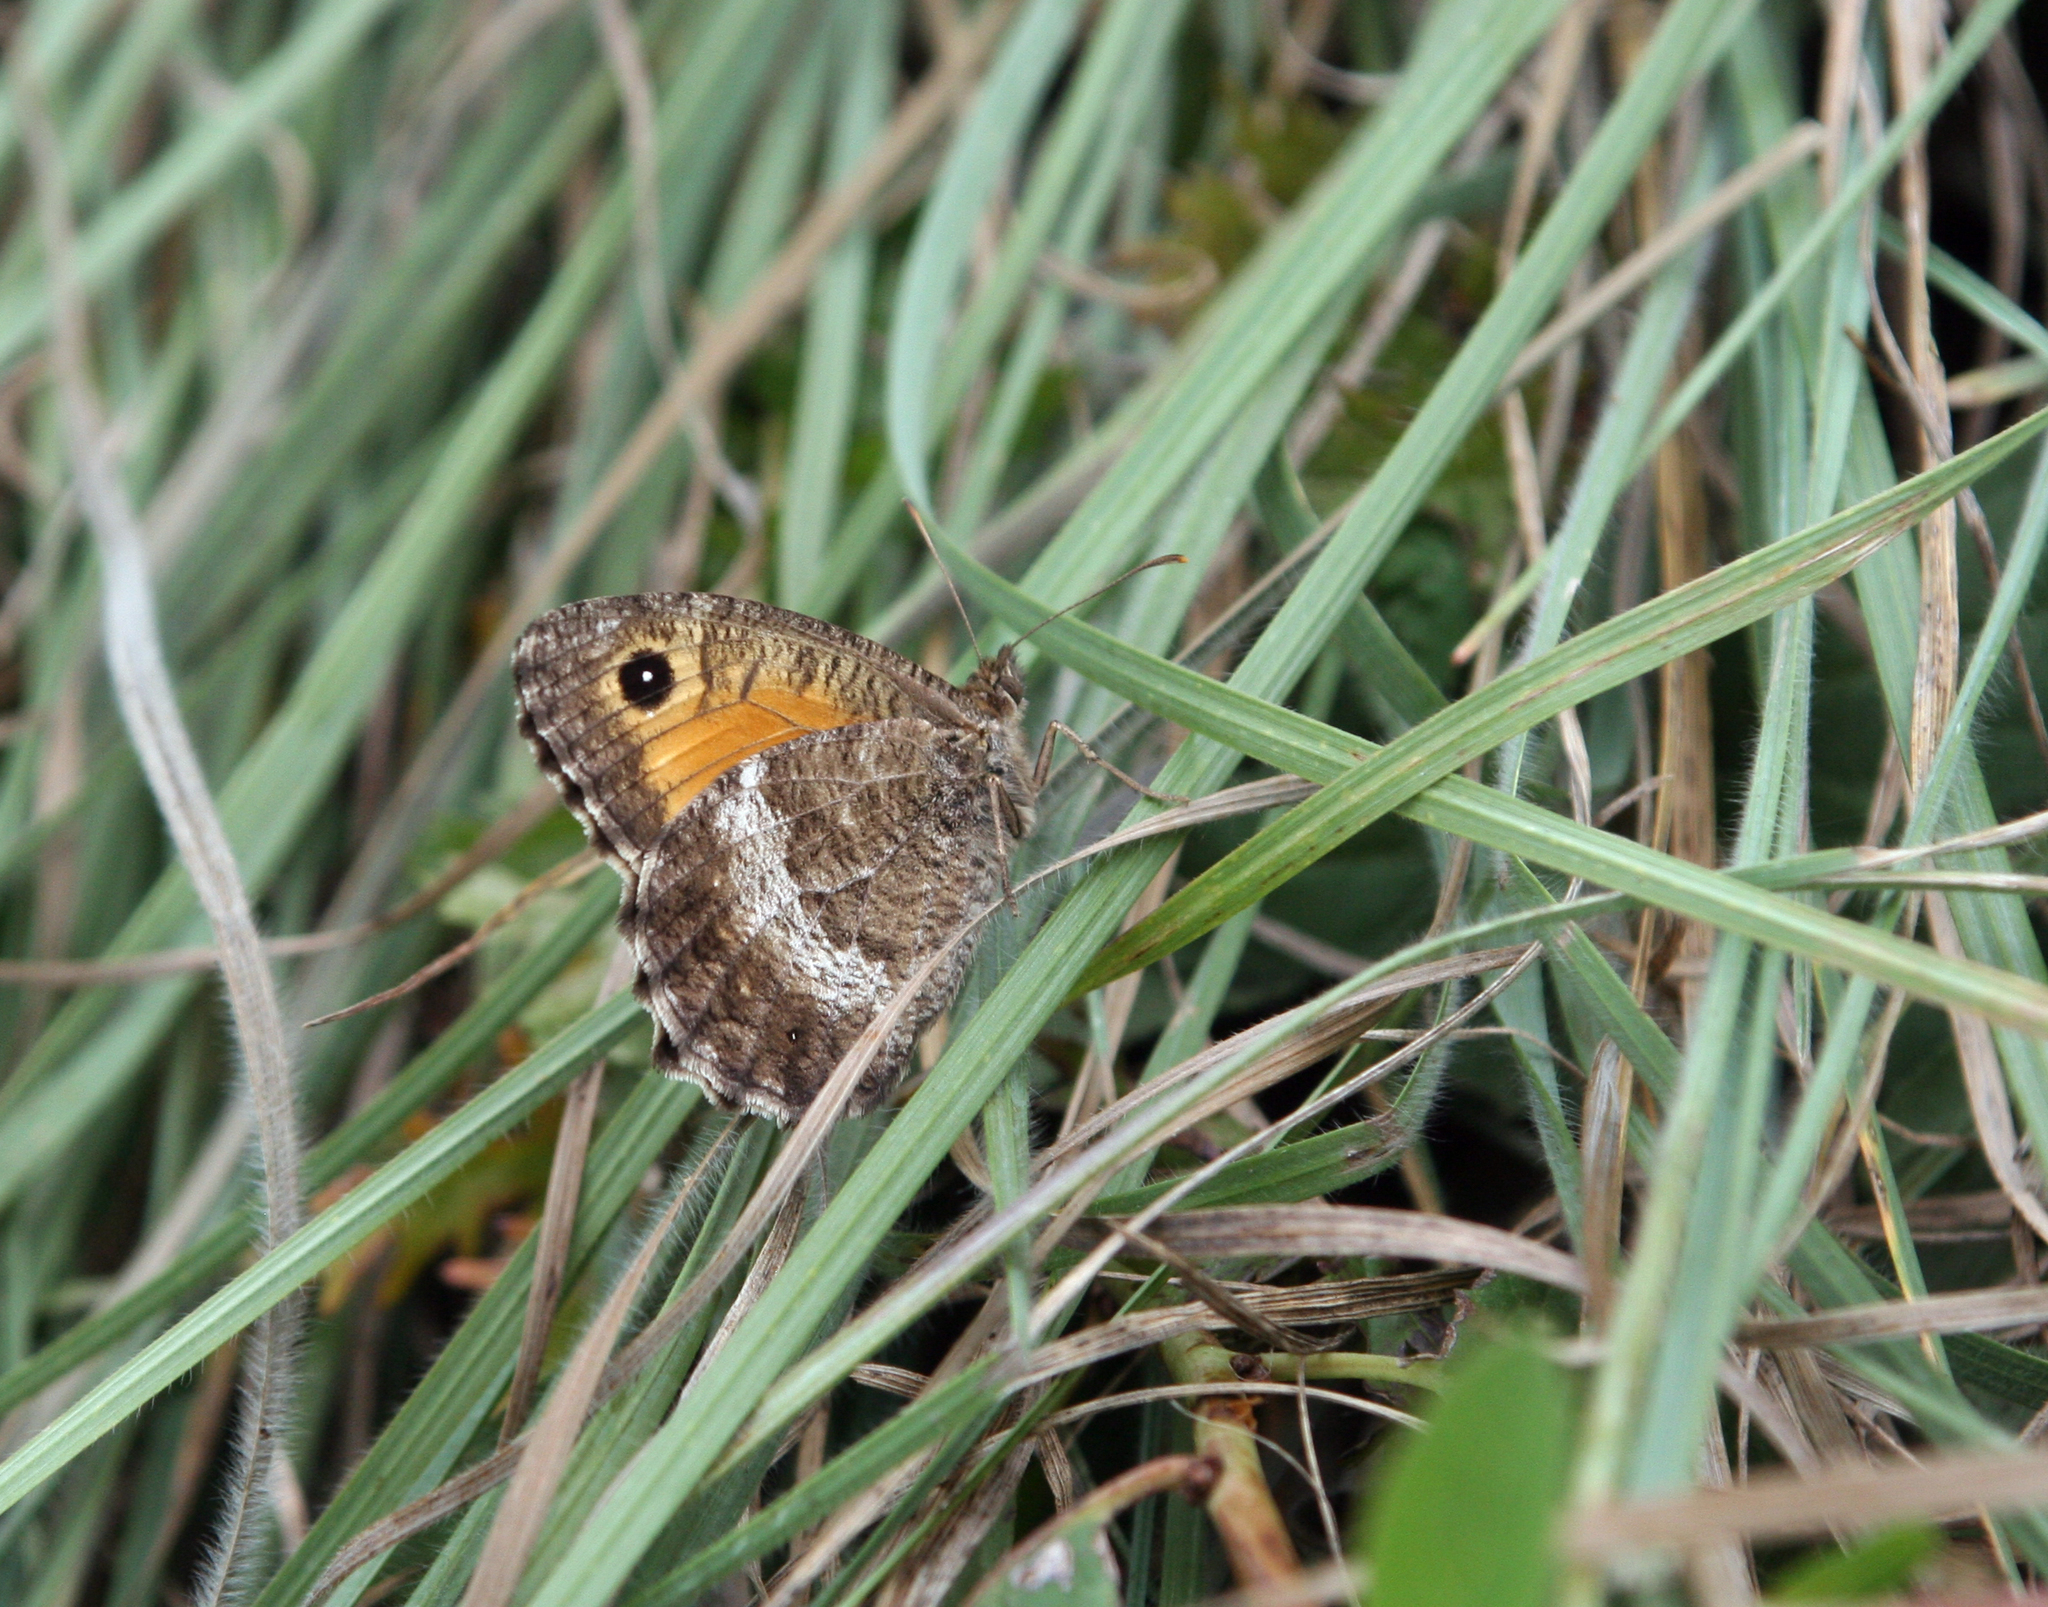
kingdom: Animalia
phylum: Arthropoda
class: Insecta
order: Lepidoptera
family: Nymphalidae
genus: Arethusana
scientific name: Arethusana arethusa
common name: False grayling
